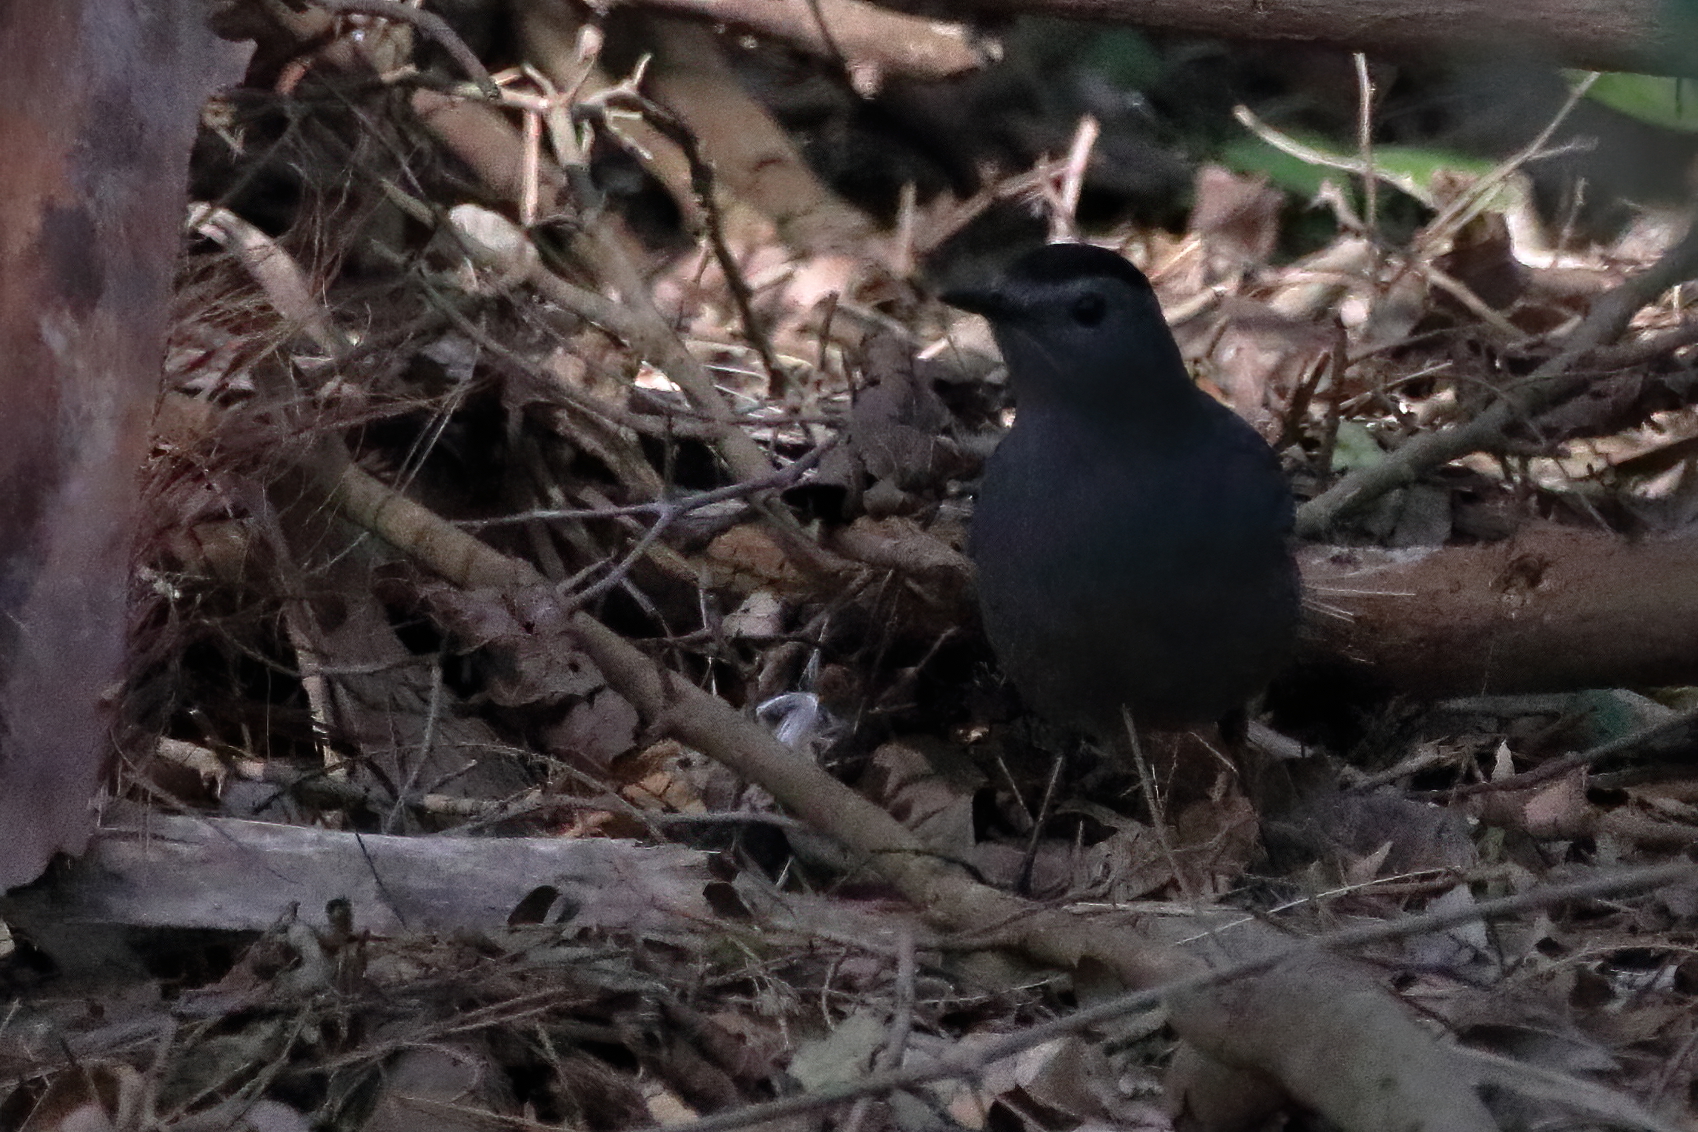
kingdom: Animalia
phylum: Chordata
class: Aves
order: Passeriformes
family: Mimidae
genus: Dumetella
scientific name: Dumetella carolinensis
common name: Gray catbird
